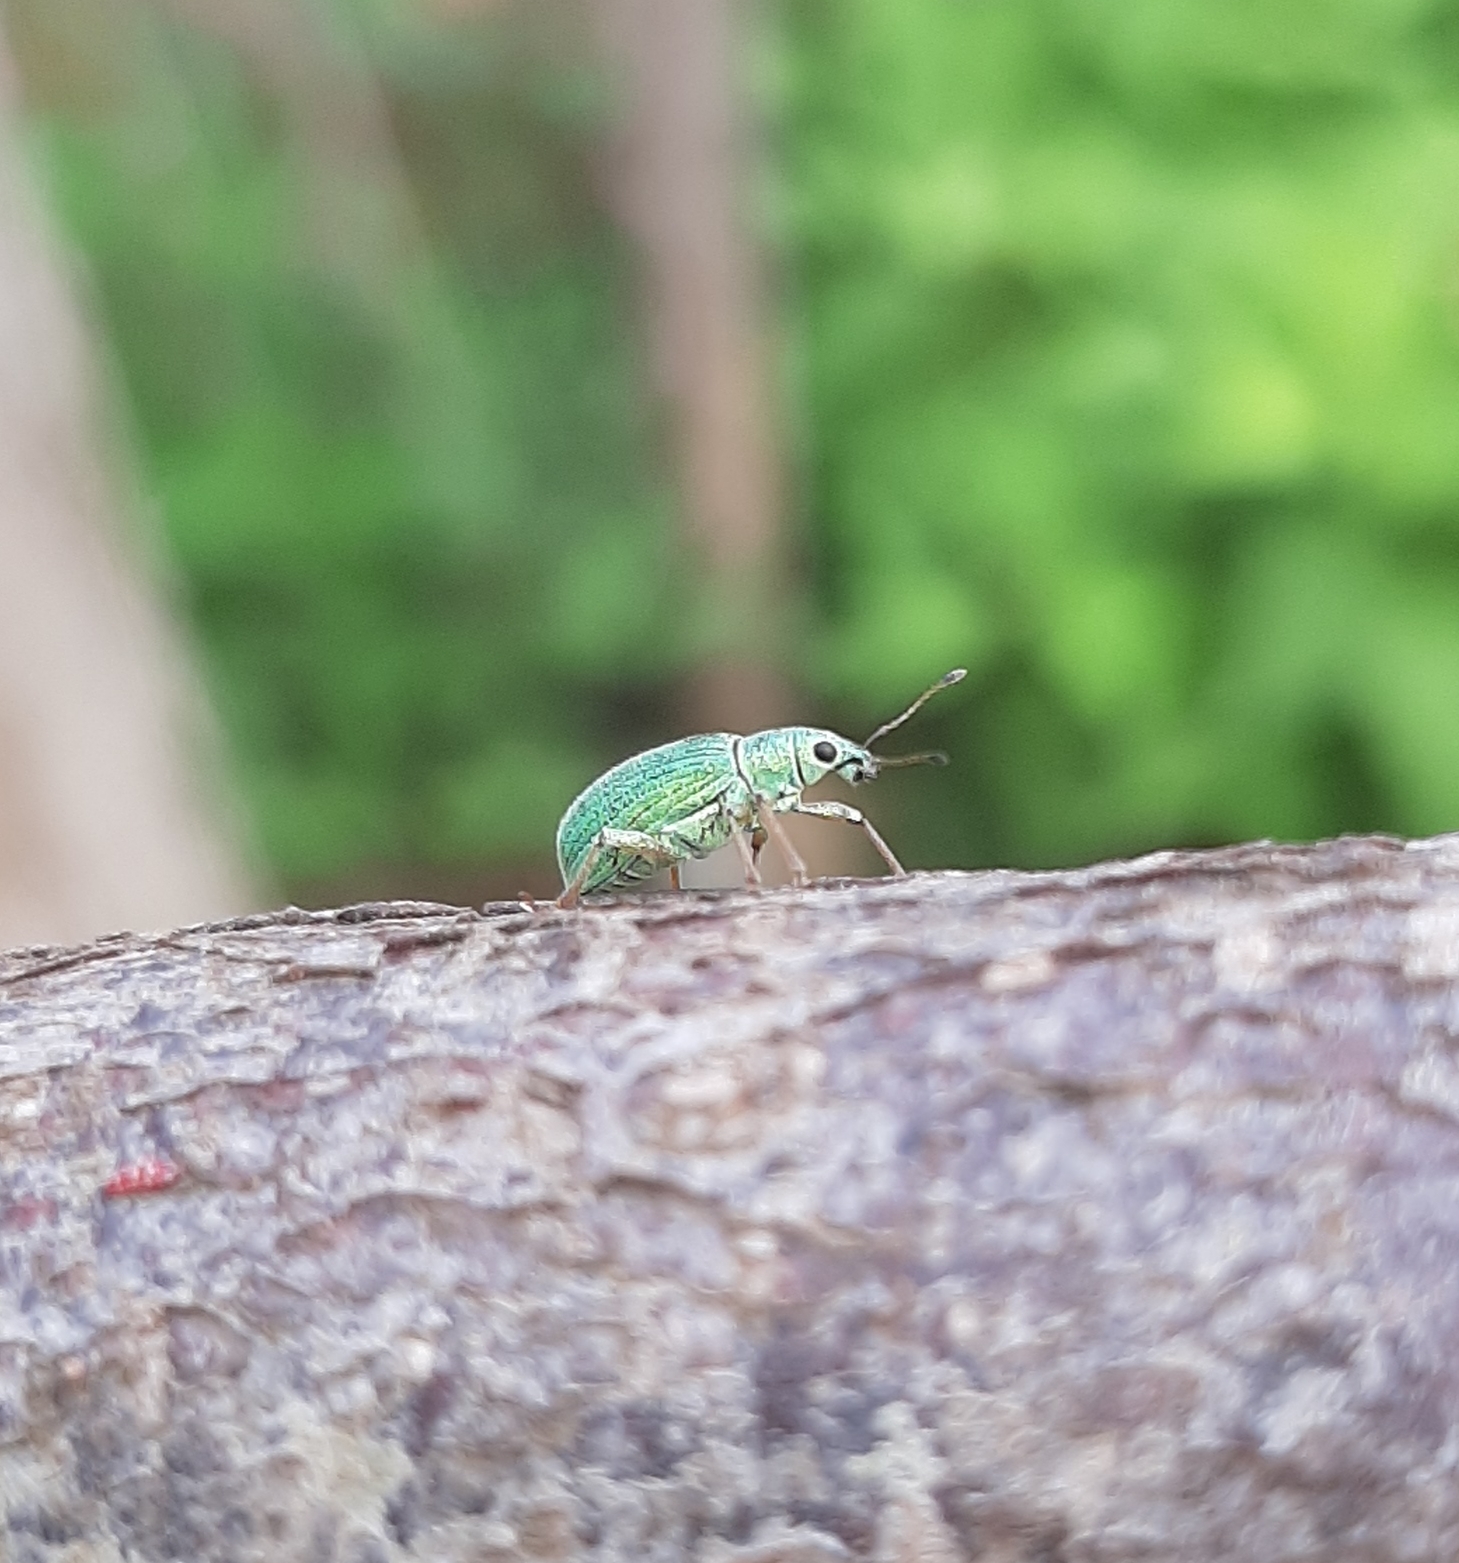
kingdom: Animalia
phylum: Arthropoda
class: Insecta
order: Coleoptera
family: Curculionidae
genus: Polydrusus
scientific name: Polydrusus formosus
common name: Weevil
